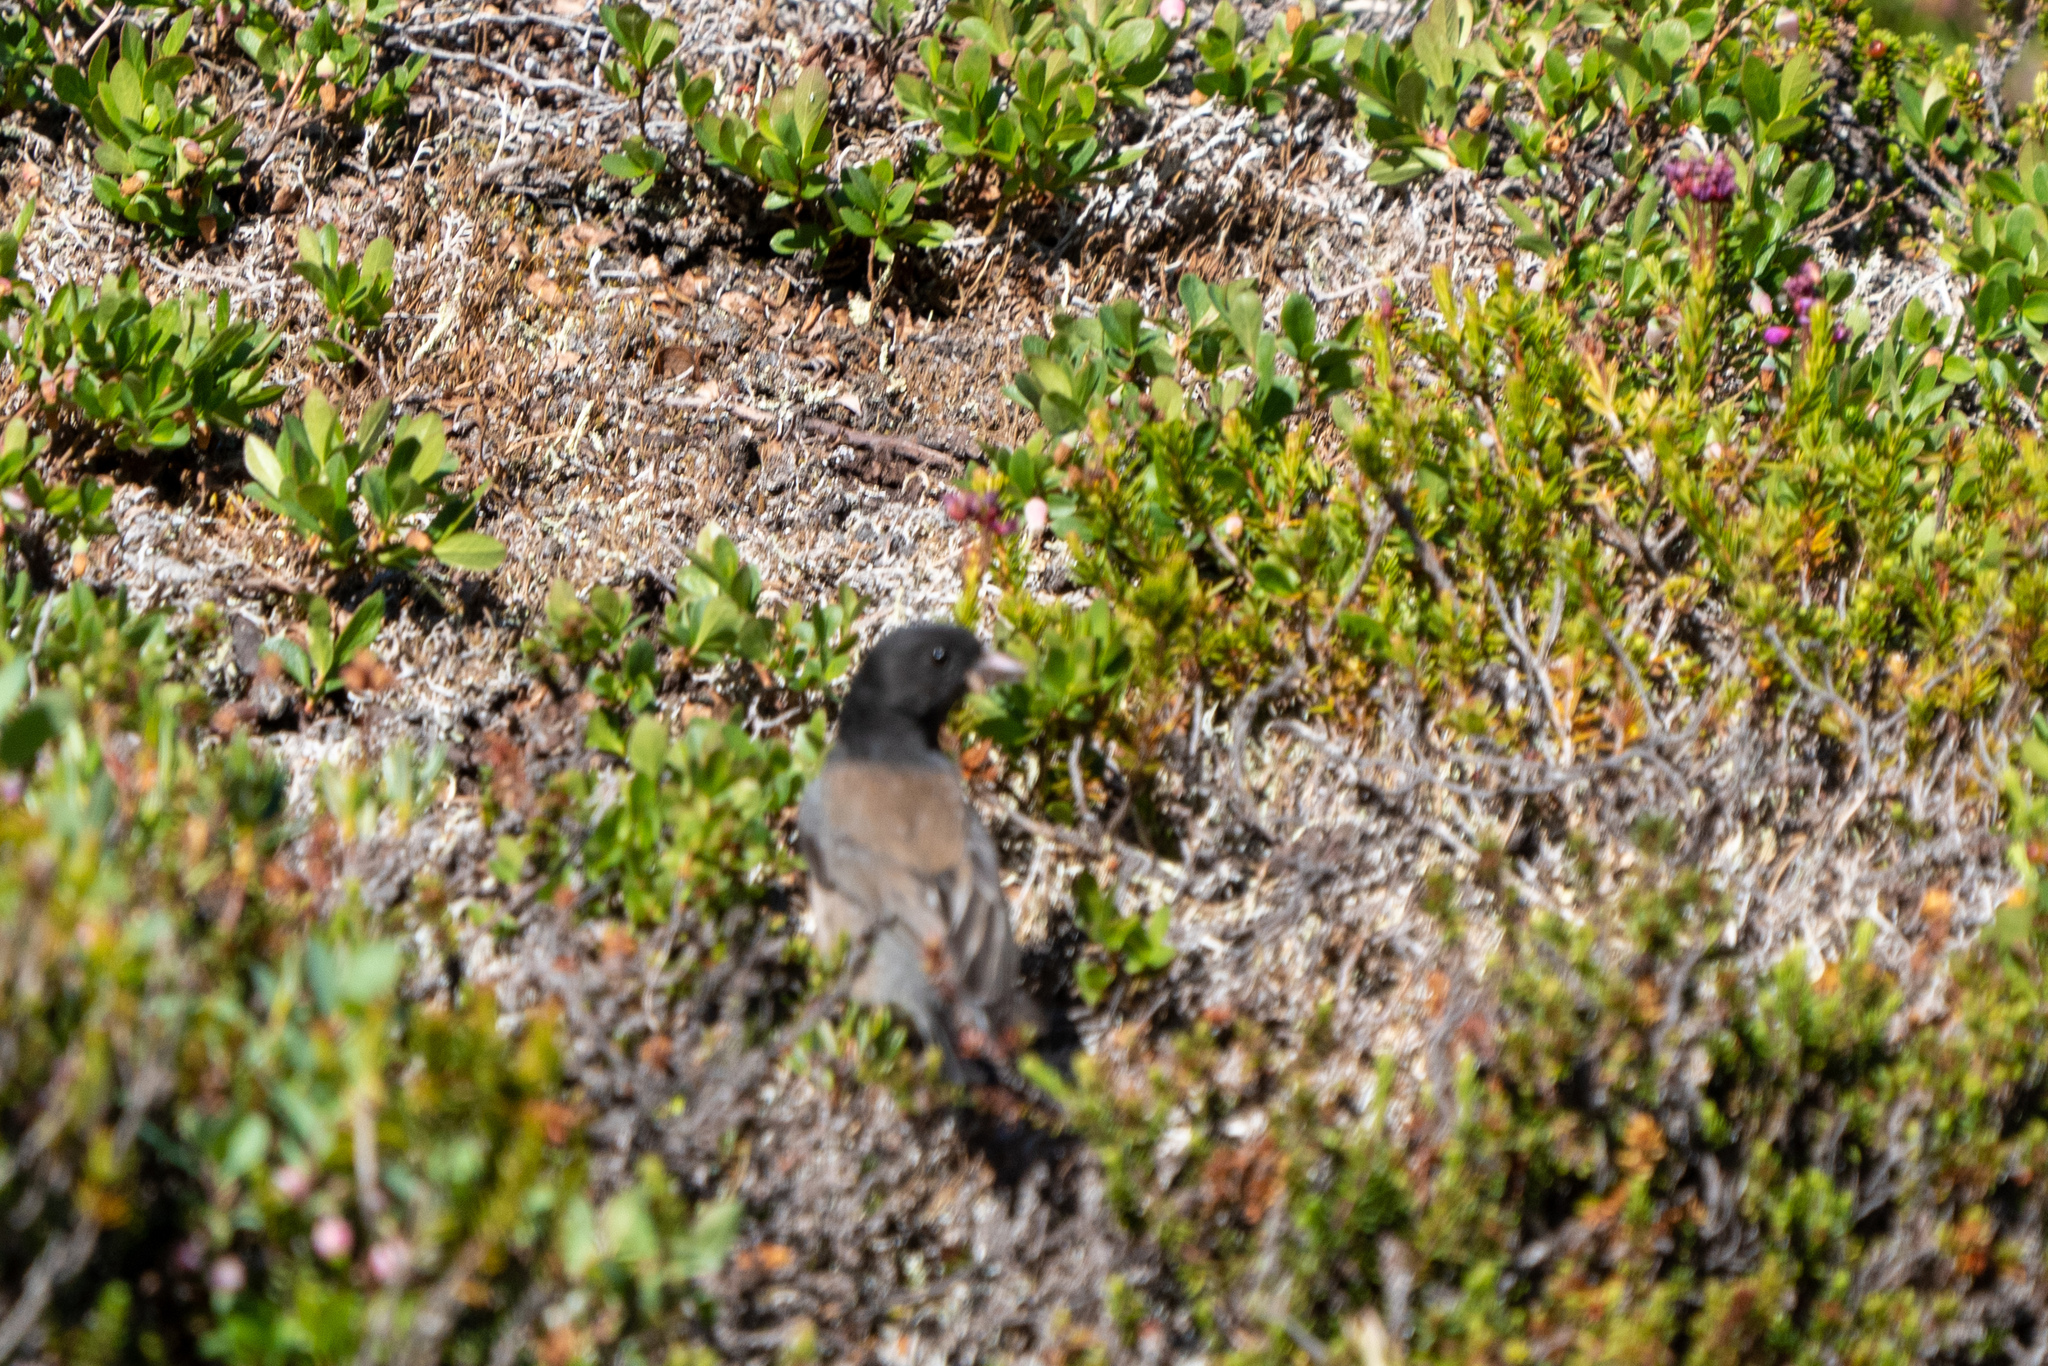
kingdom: Animalia
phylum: Chordata
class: Aves
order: Passeriformes
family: Passerellidae
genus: Junco
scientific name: Junco hyemalis
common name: Dark-eyed junco
